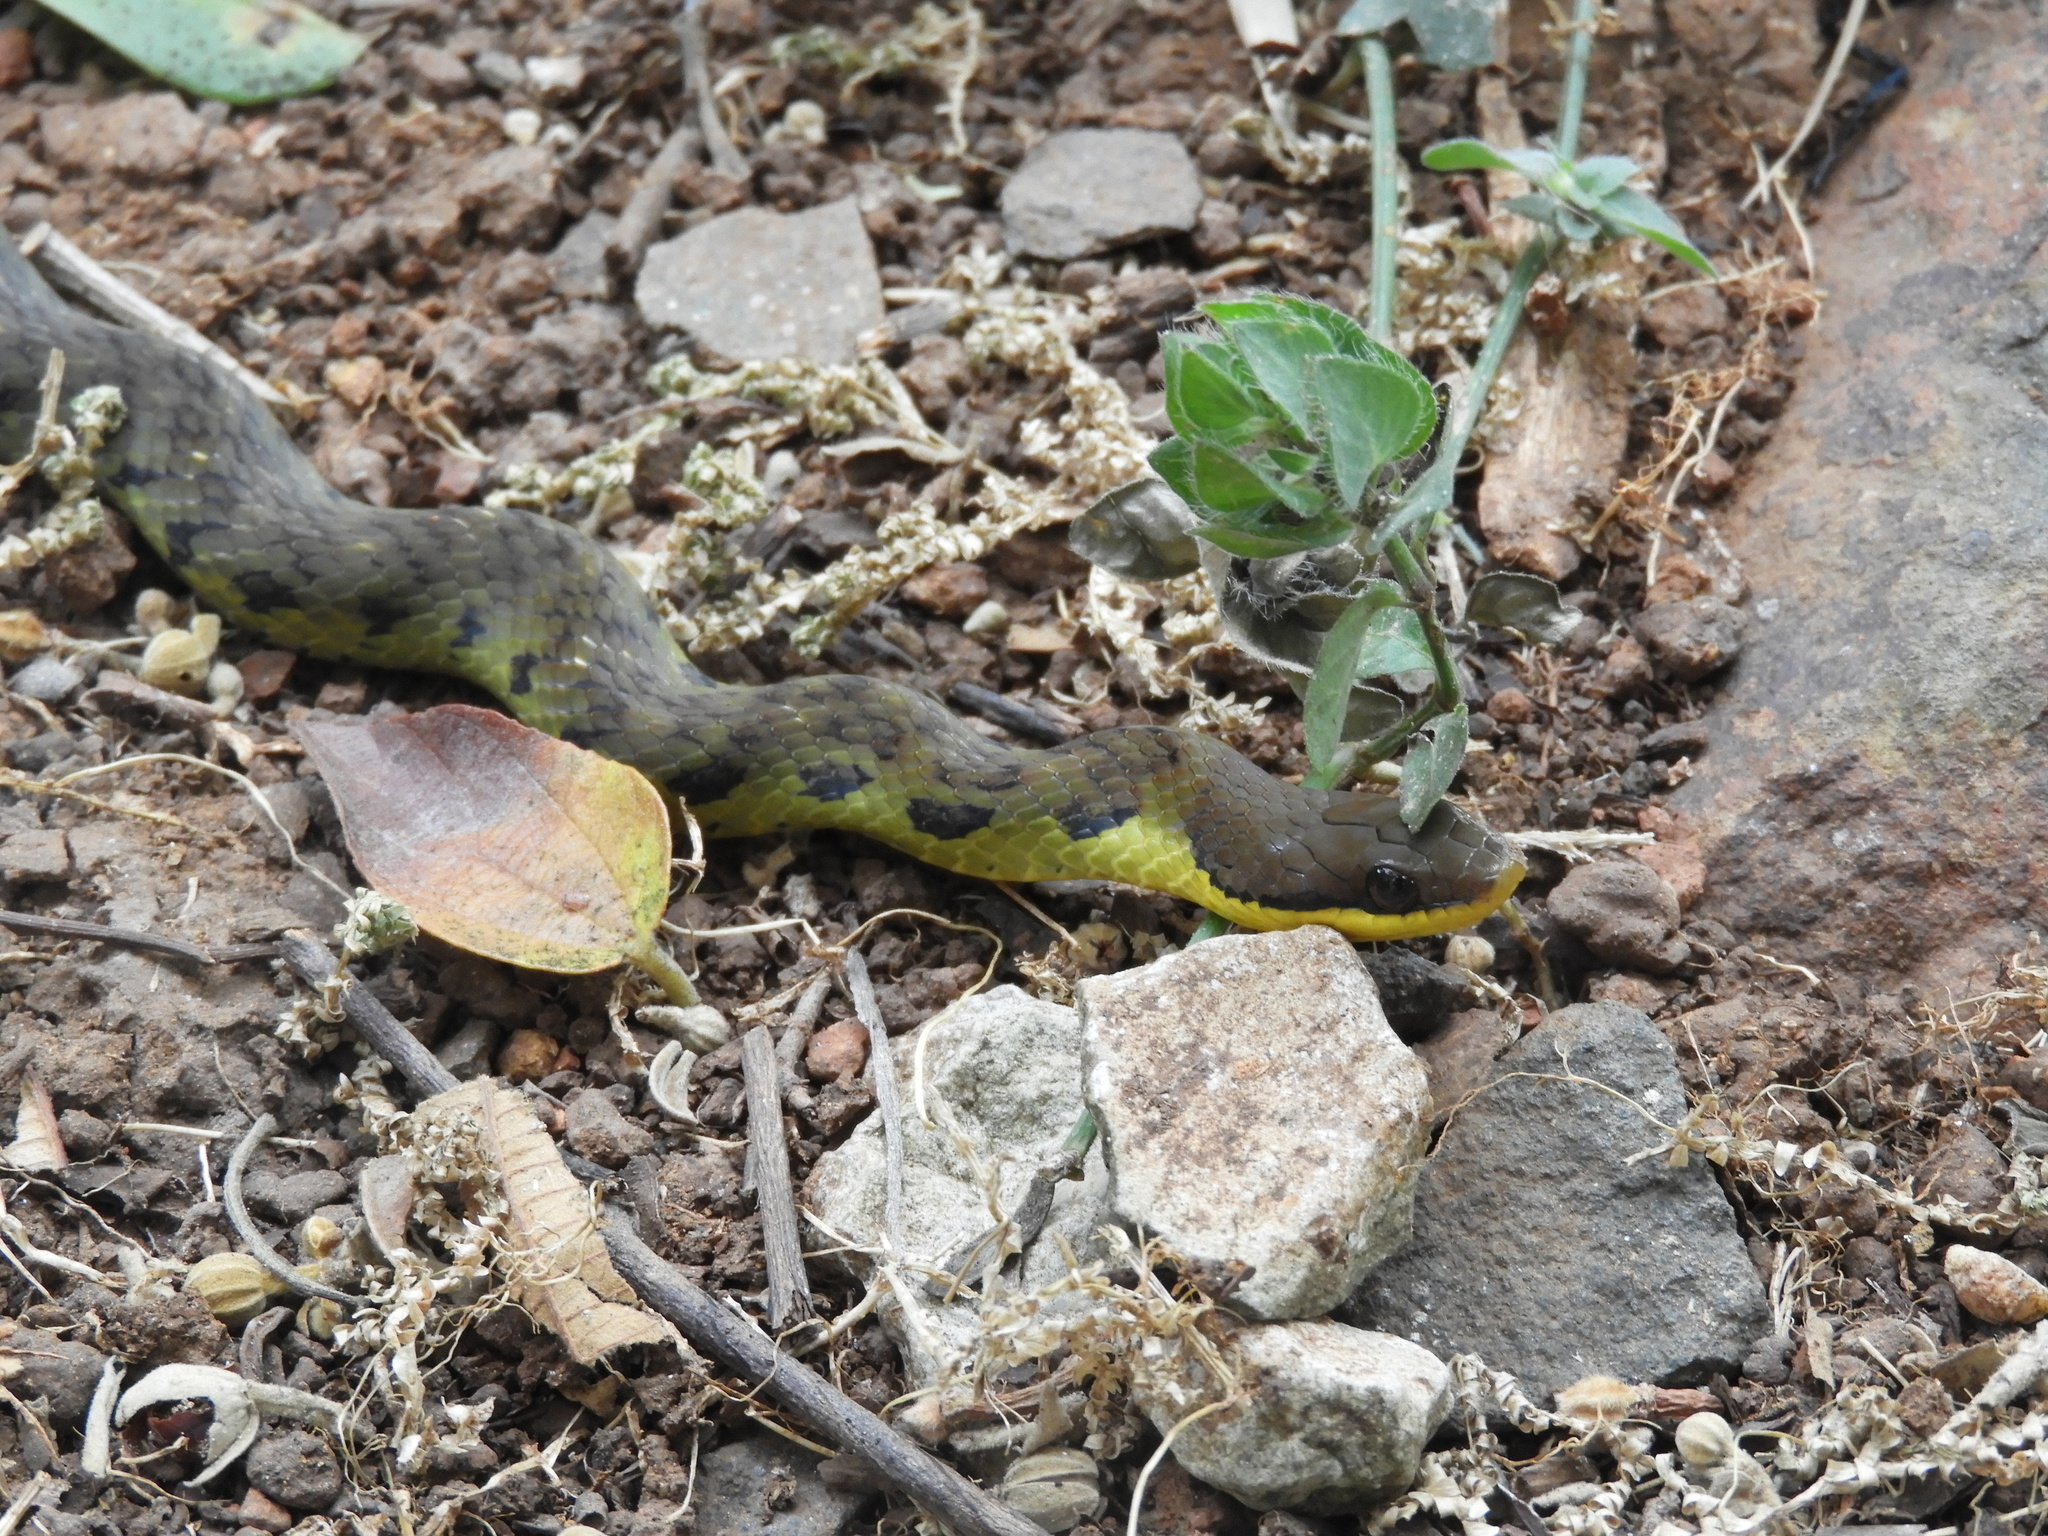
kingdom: Animalia
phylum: Chordata
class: Squamata
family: Colubridae
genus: Erythrolamprus
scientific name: Erythrolamprus epinephalus
